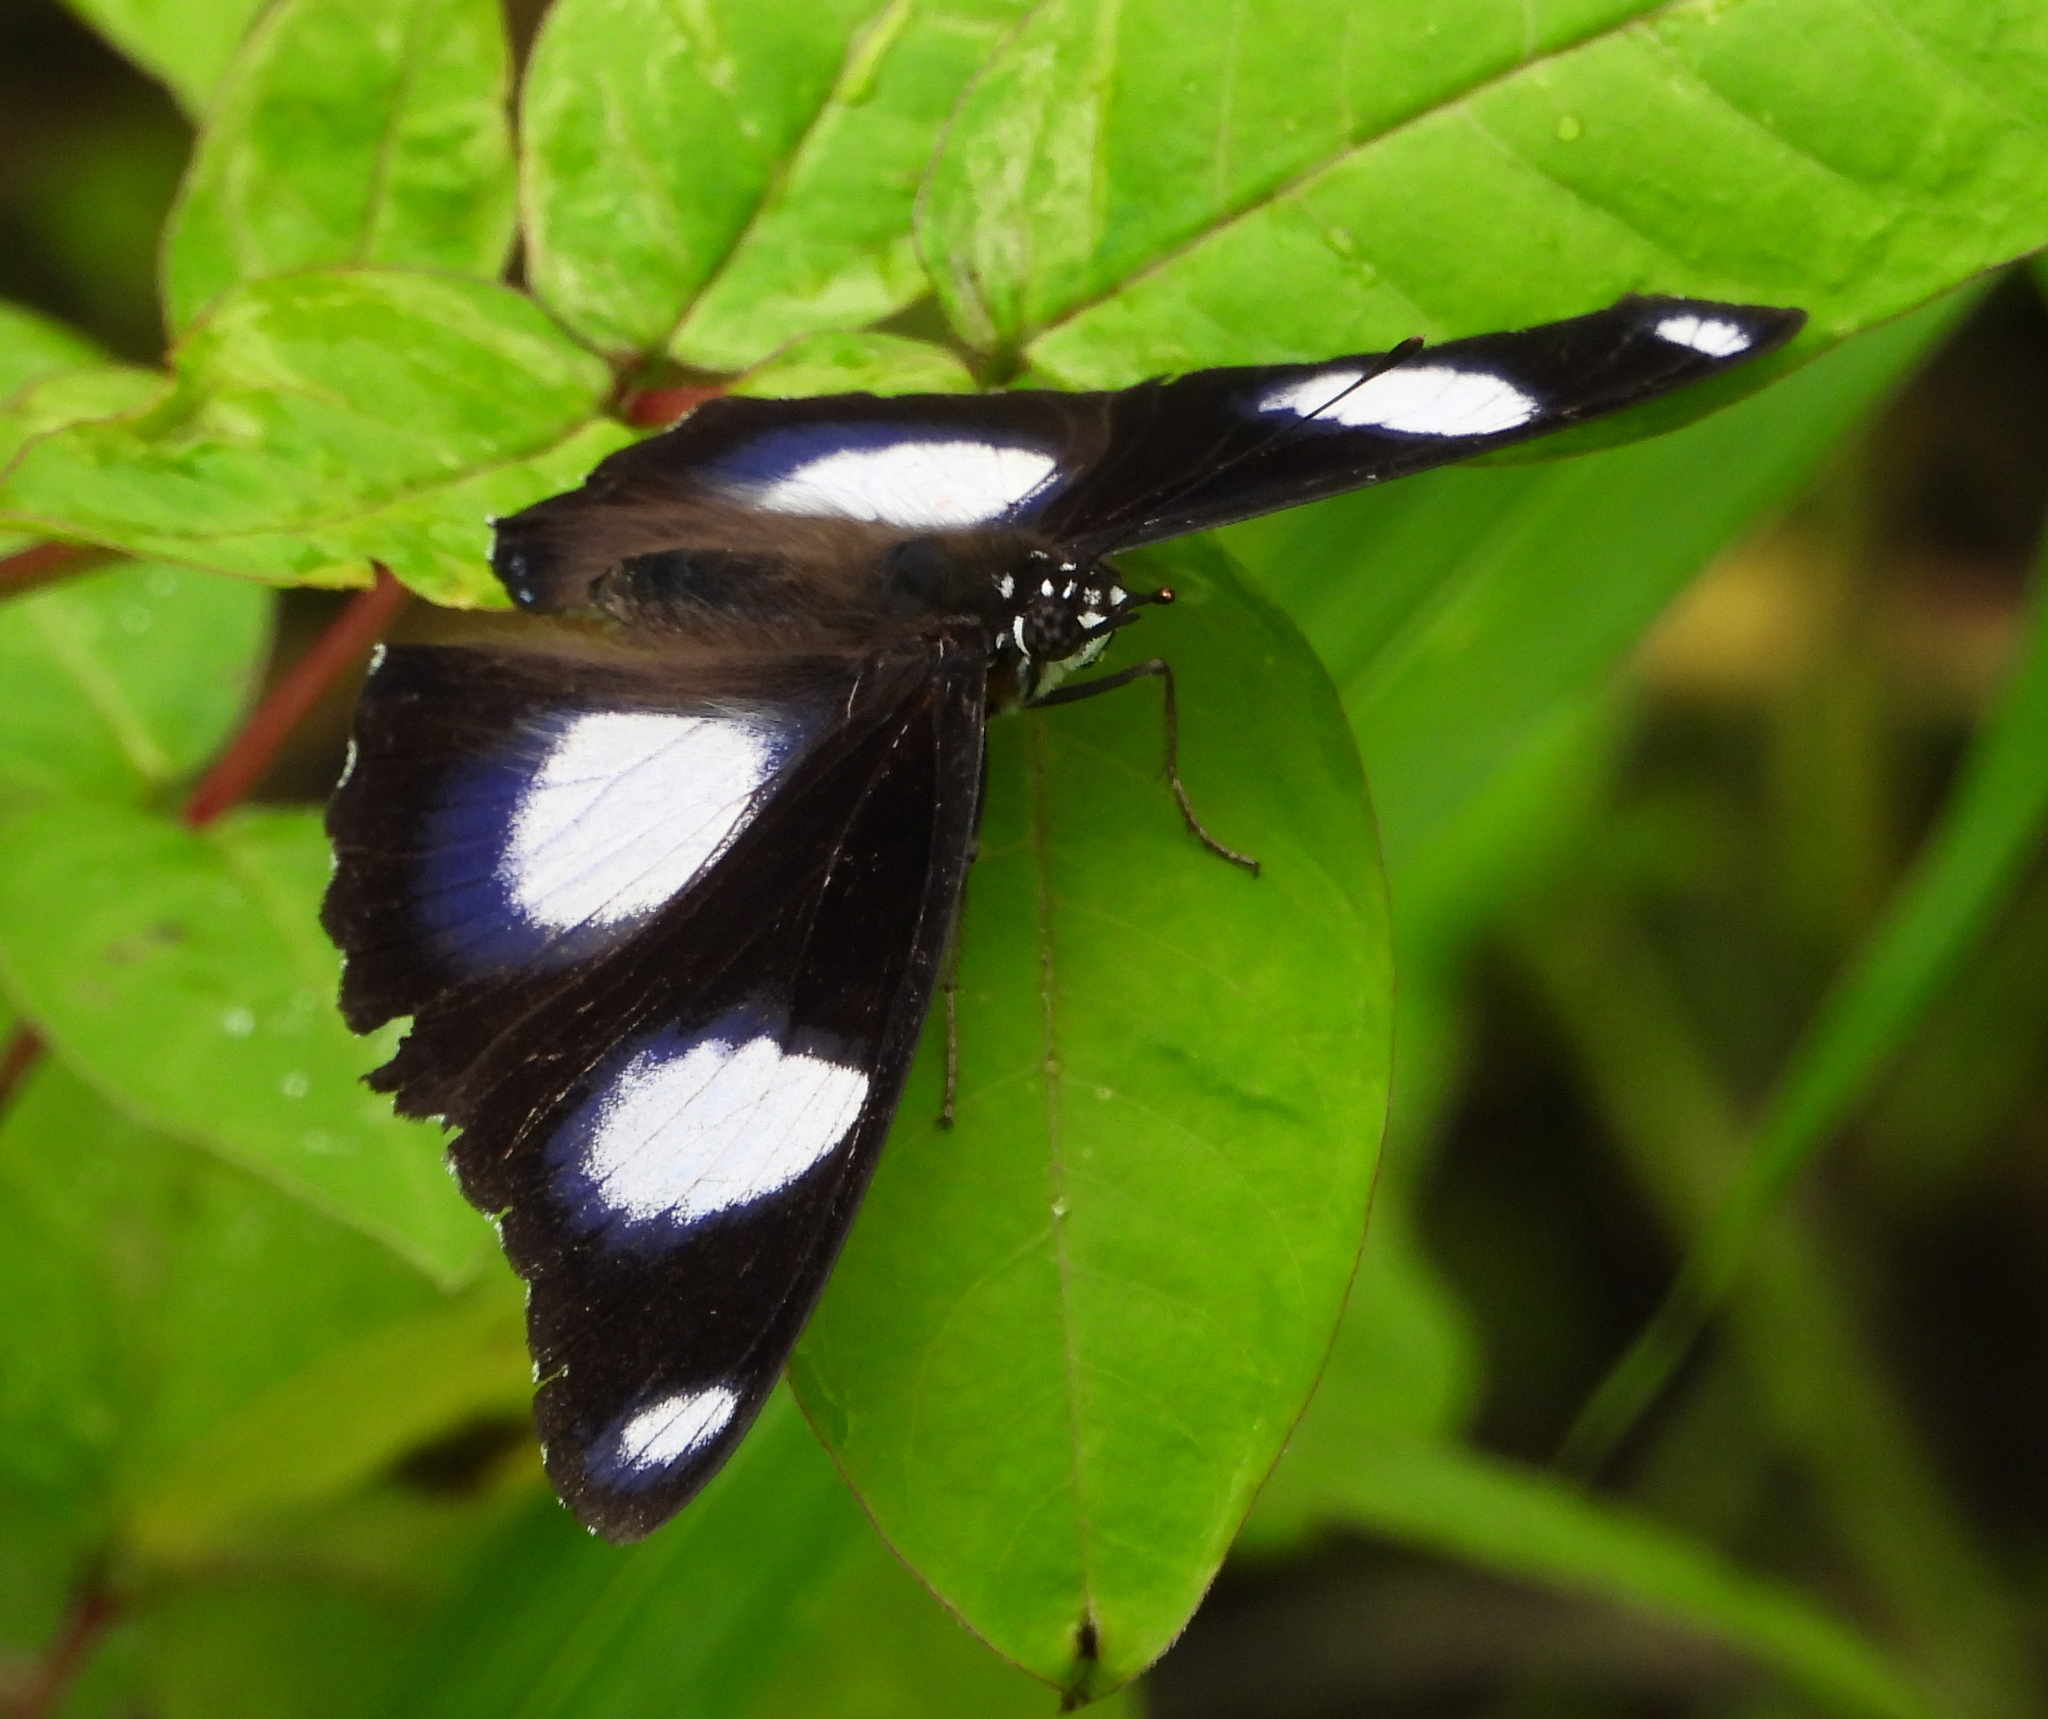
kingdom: Animalia
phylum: Arthropoda
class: Insecta
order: Lepidoptera
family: Nymphalidae
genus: Hypolimnas
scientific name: Hypolimnas misippus
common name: False plain tiger
